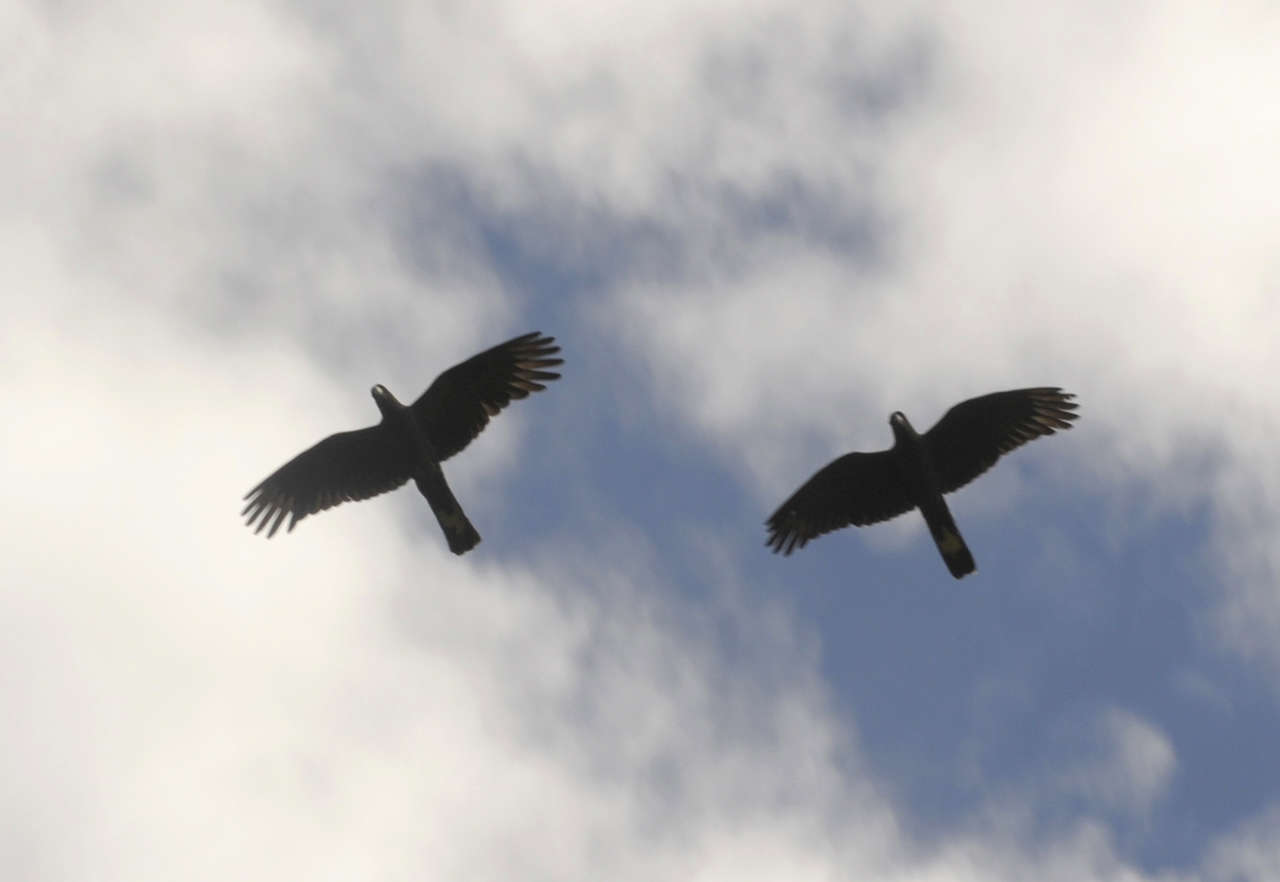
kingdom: Animalia
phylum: Chordata
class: Aves
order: Psittaciformes
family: Cacatuidae
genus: Zanda
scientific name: Zanda funerea
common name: Yellow-tailed black-cockatoo
